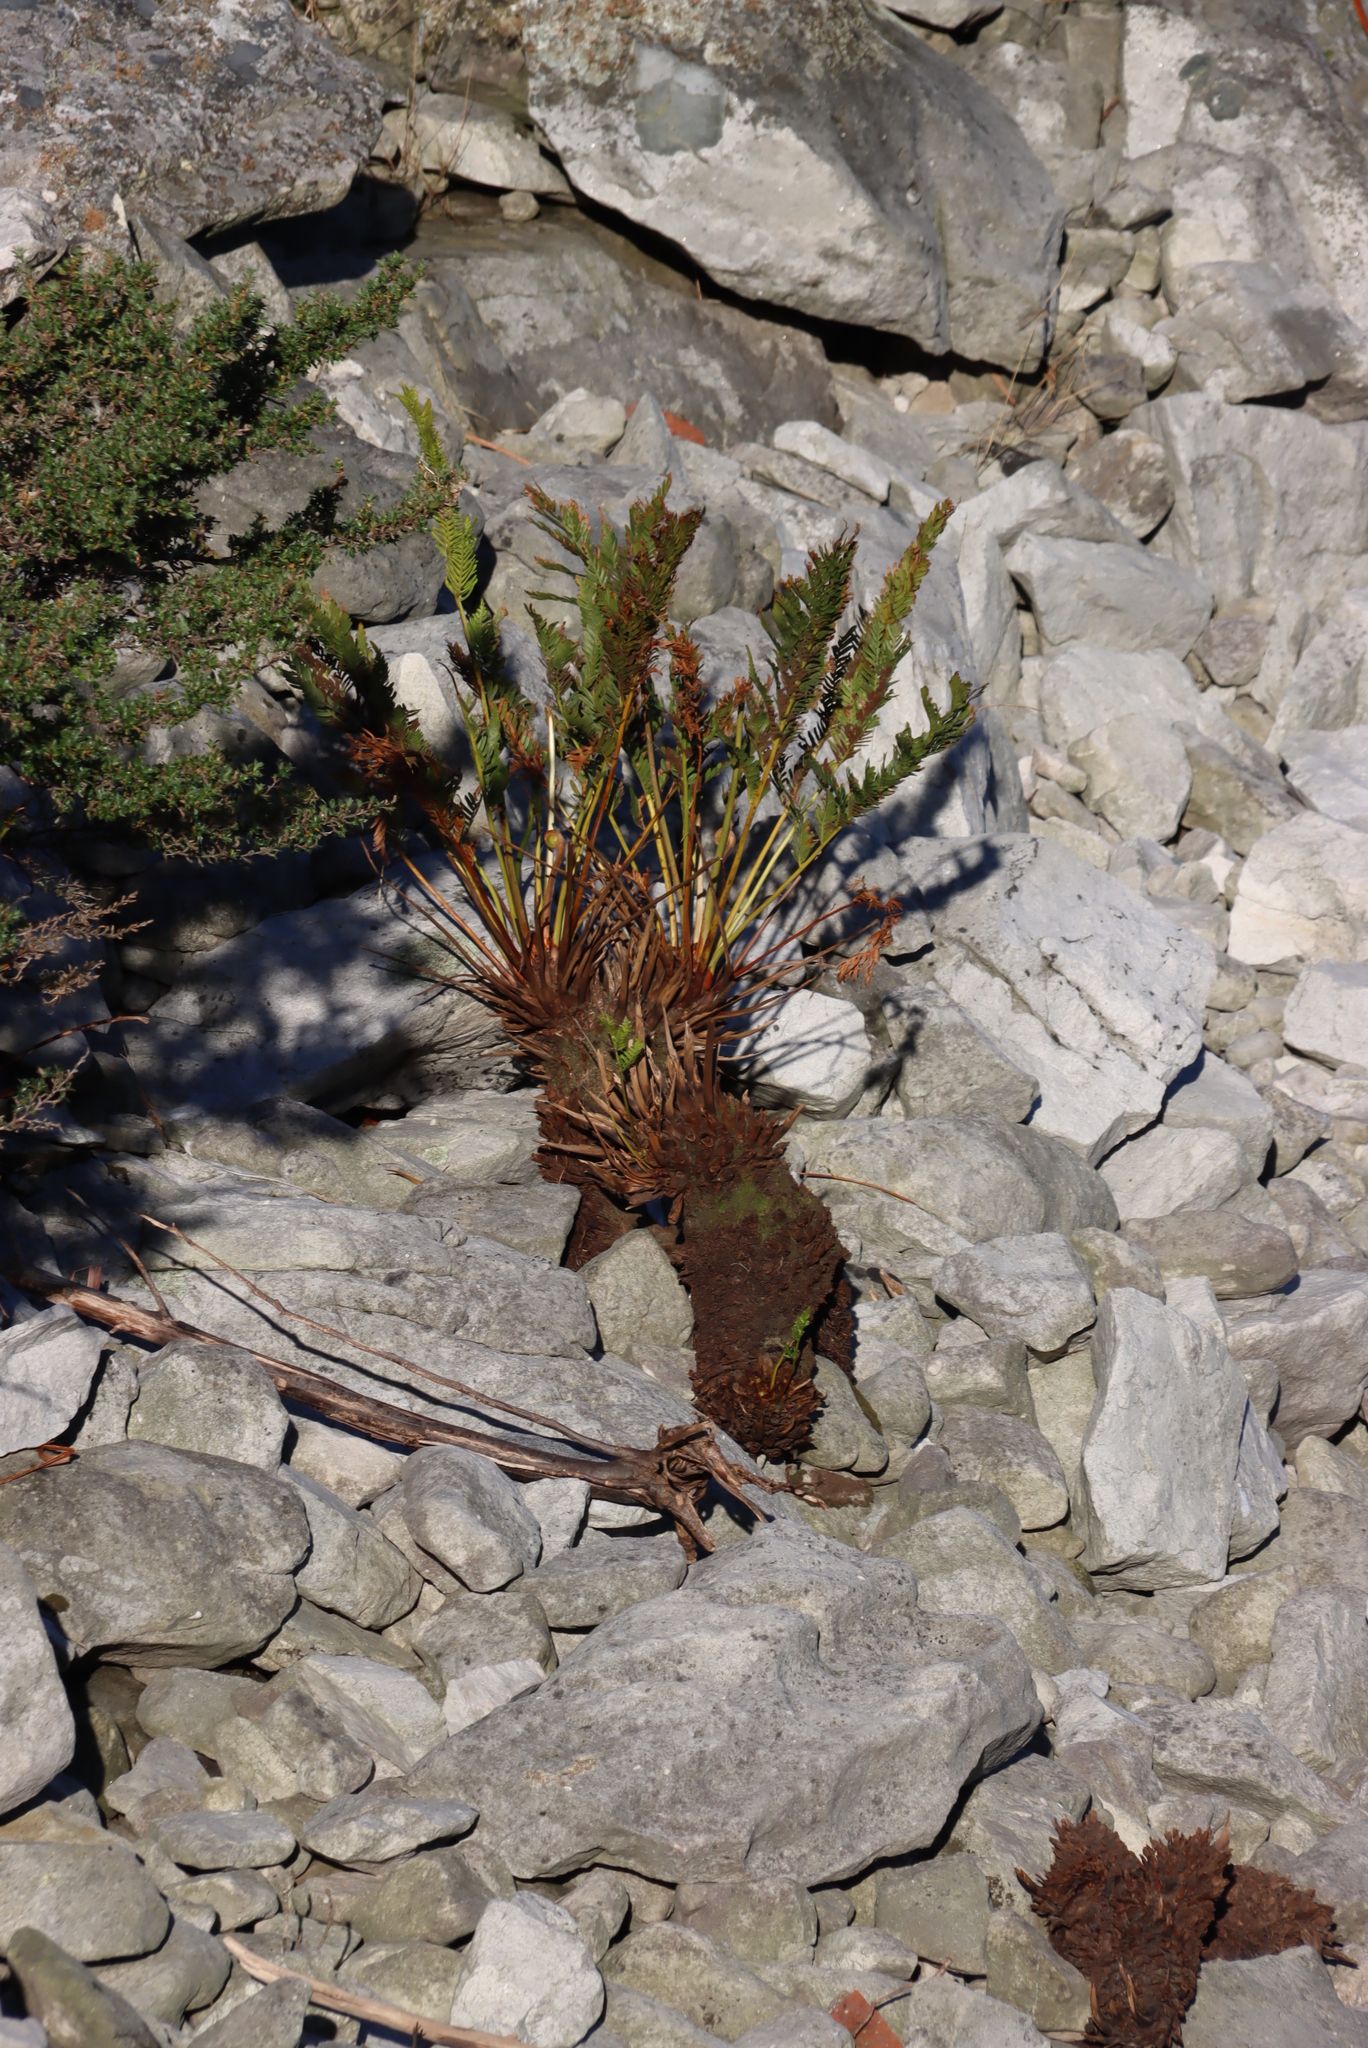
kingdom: Plantae
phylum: Tracheophyta
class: Polypodiopsida
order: Osmundales
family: Osmundaceae
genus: Todea
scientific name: Todea barbara
